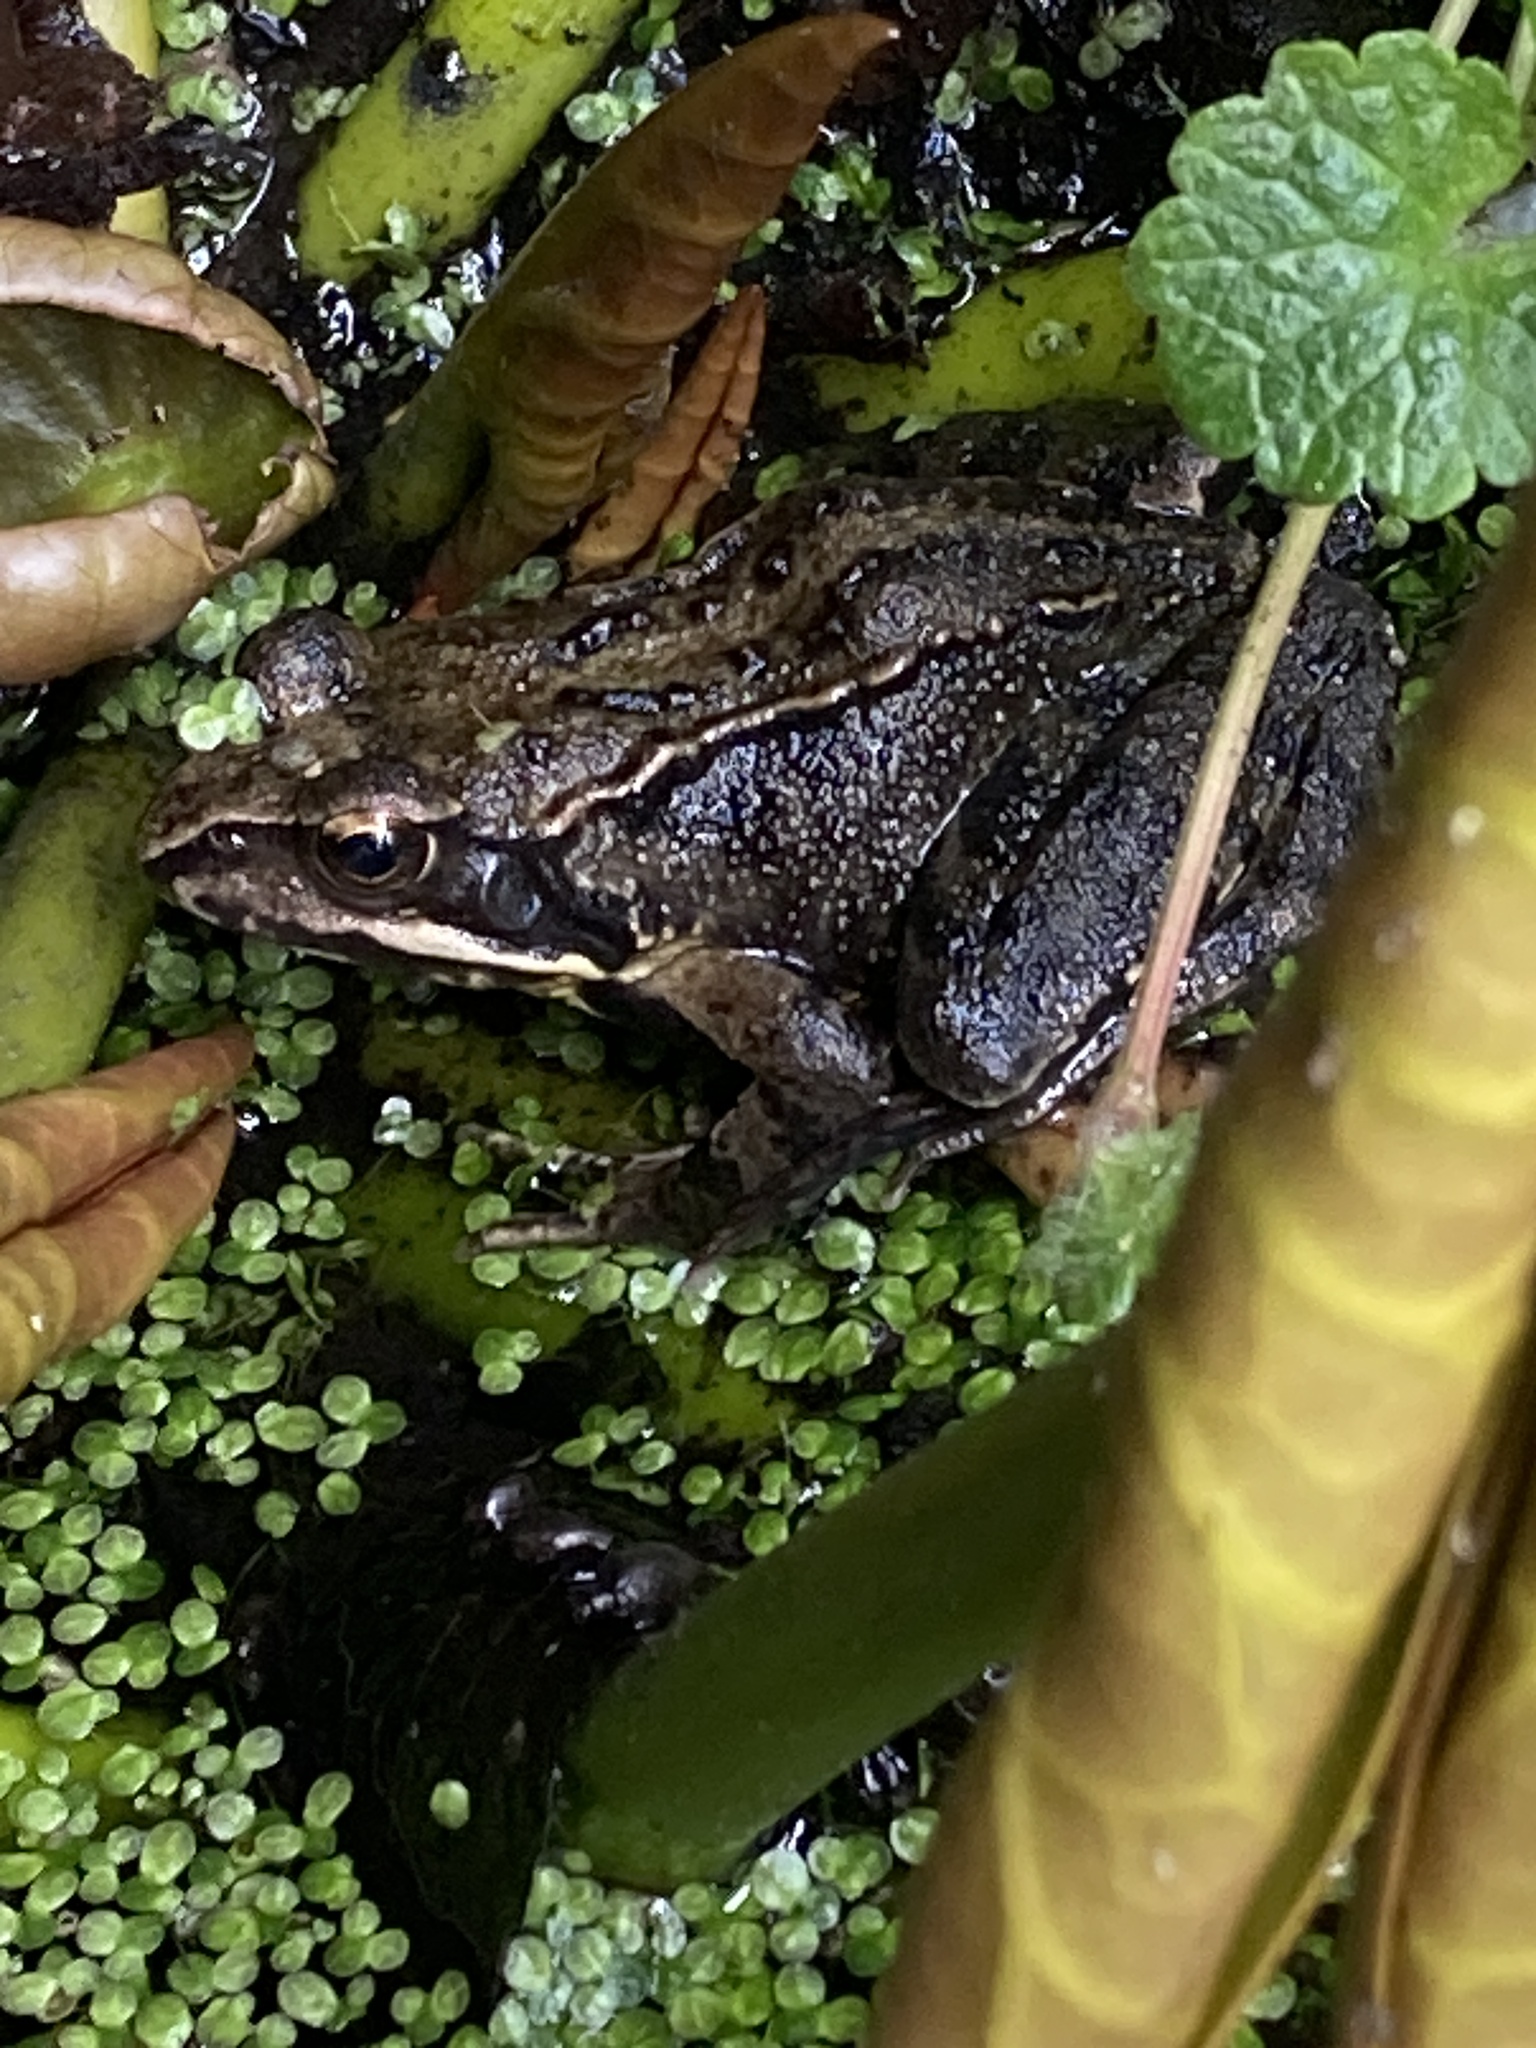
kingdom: Animalia
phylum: Chordata
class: Amphibia
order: Anura
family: Ranidae
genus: Rana
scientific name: Rana temporaria
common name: Common frog
